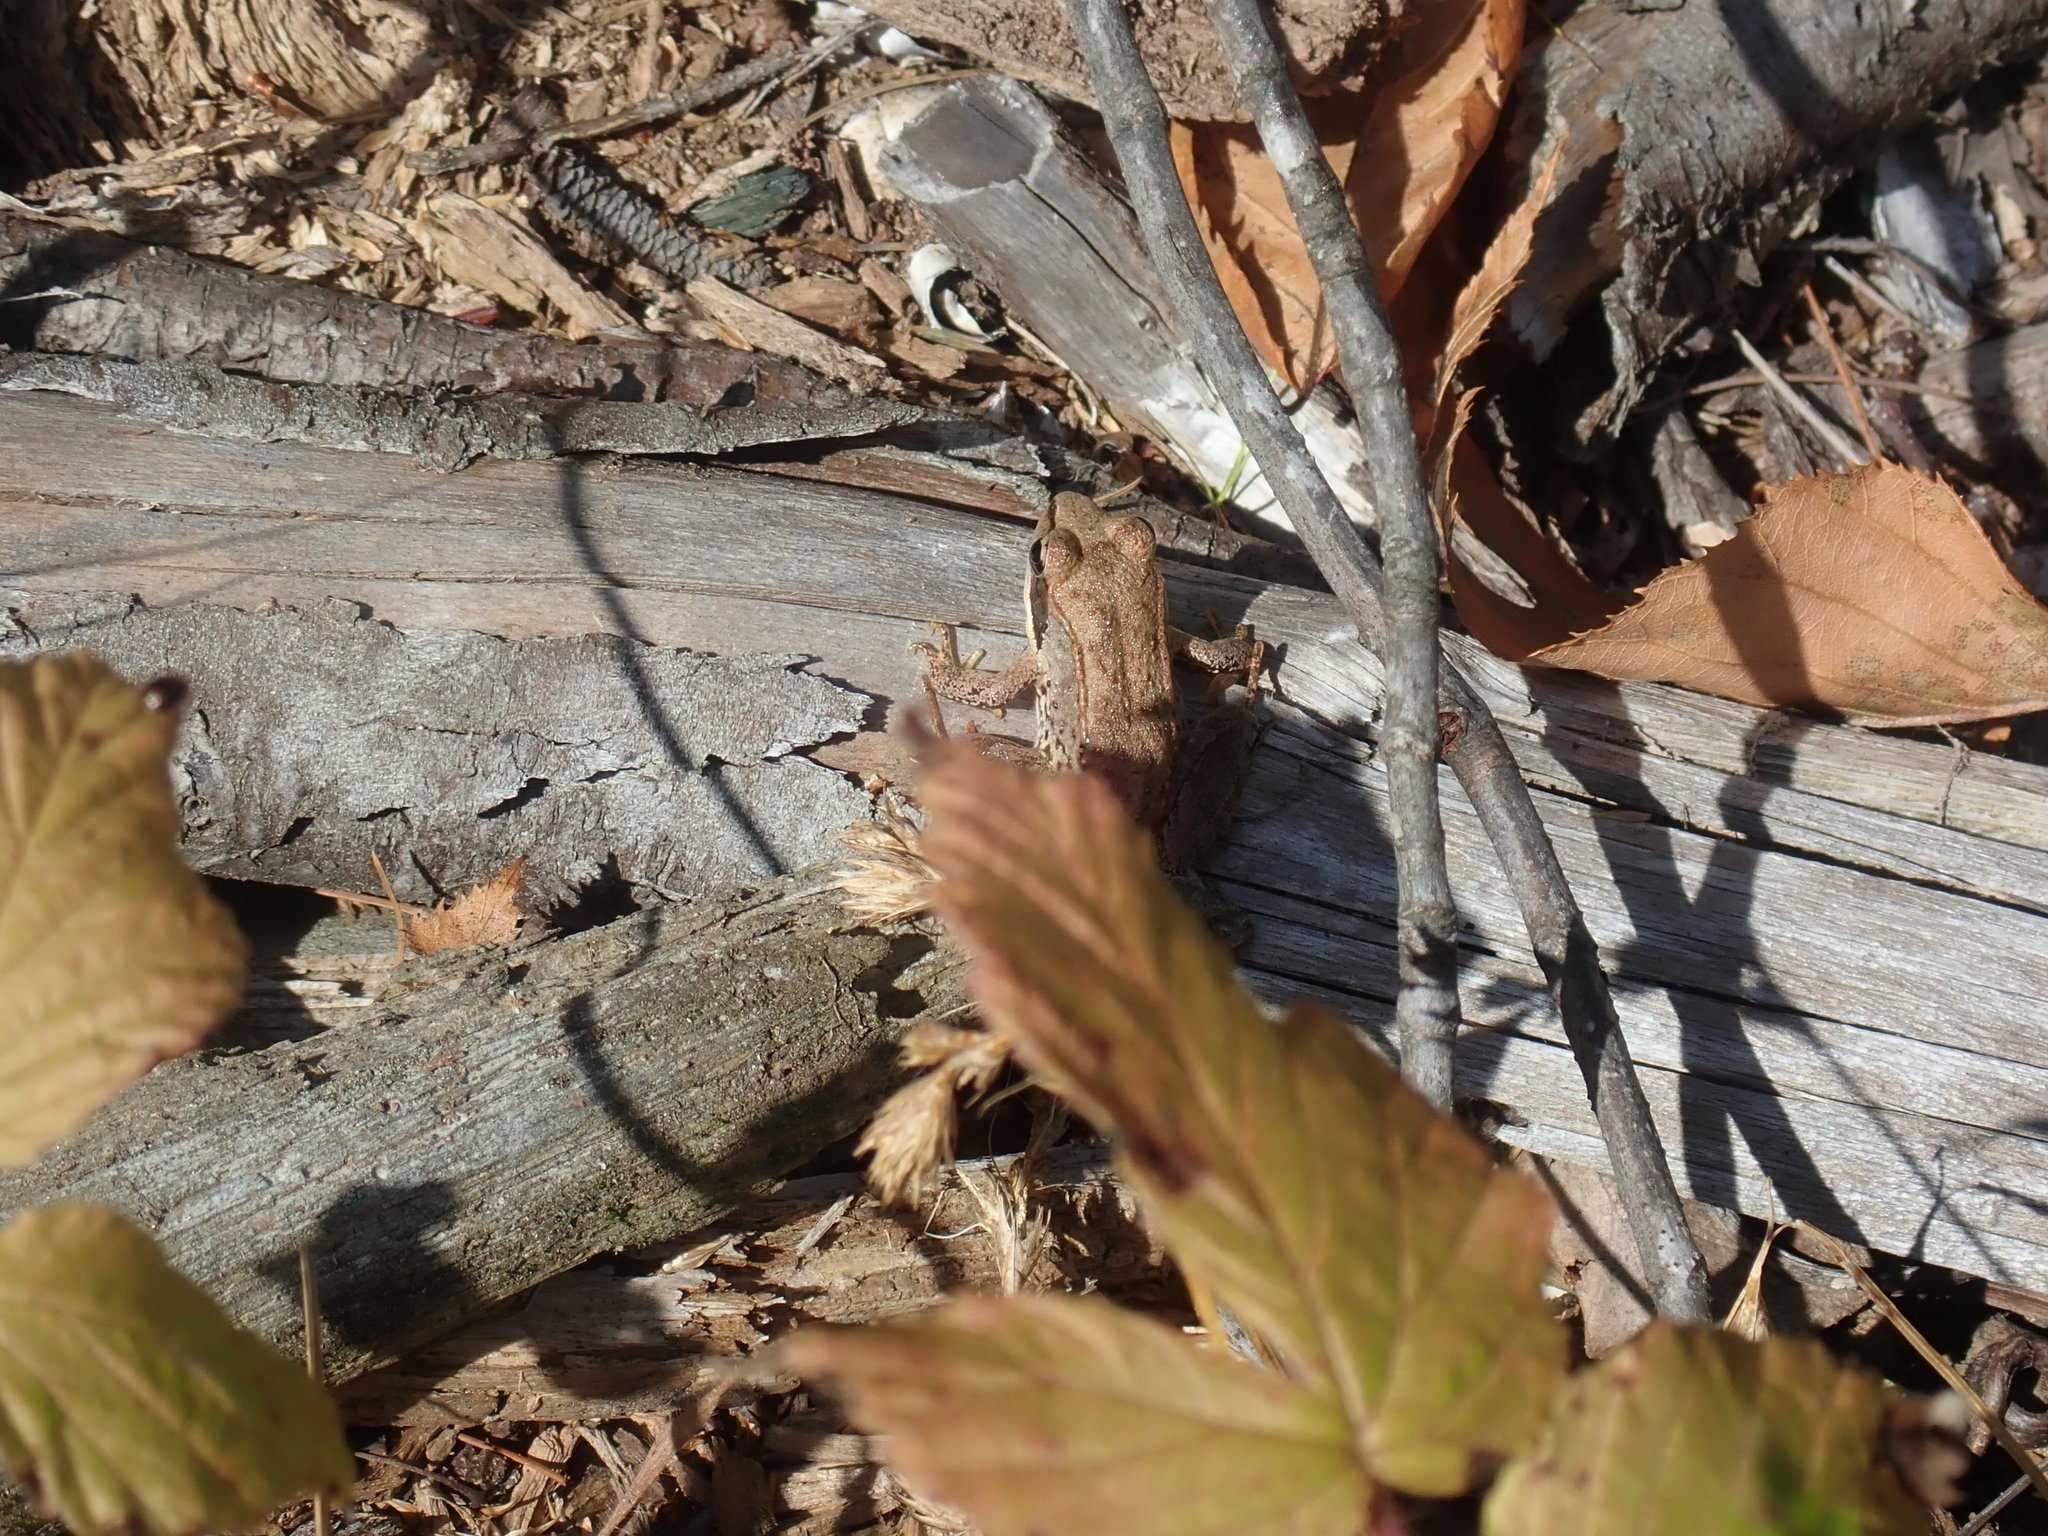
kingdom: Animalia
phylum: Chordata
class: Amphibia
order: Anura
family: Ranidae
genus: Lithobates
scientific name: Lithobates sylvaticus
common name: Wood frog
